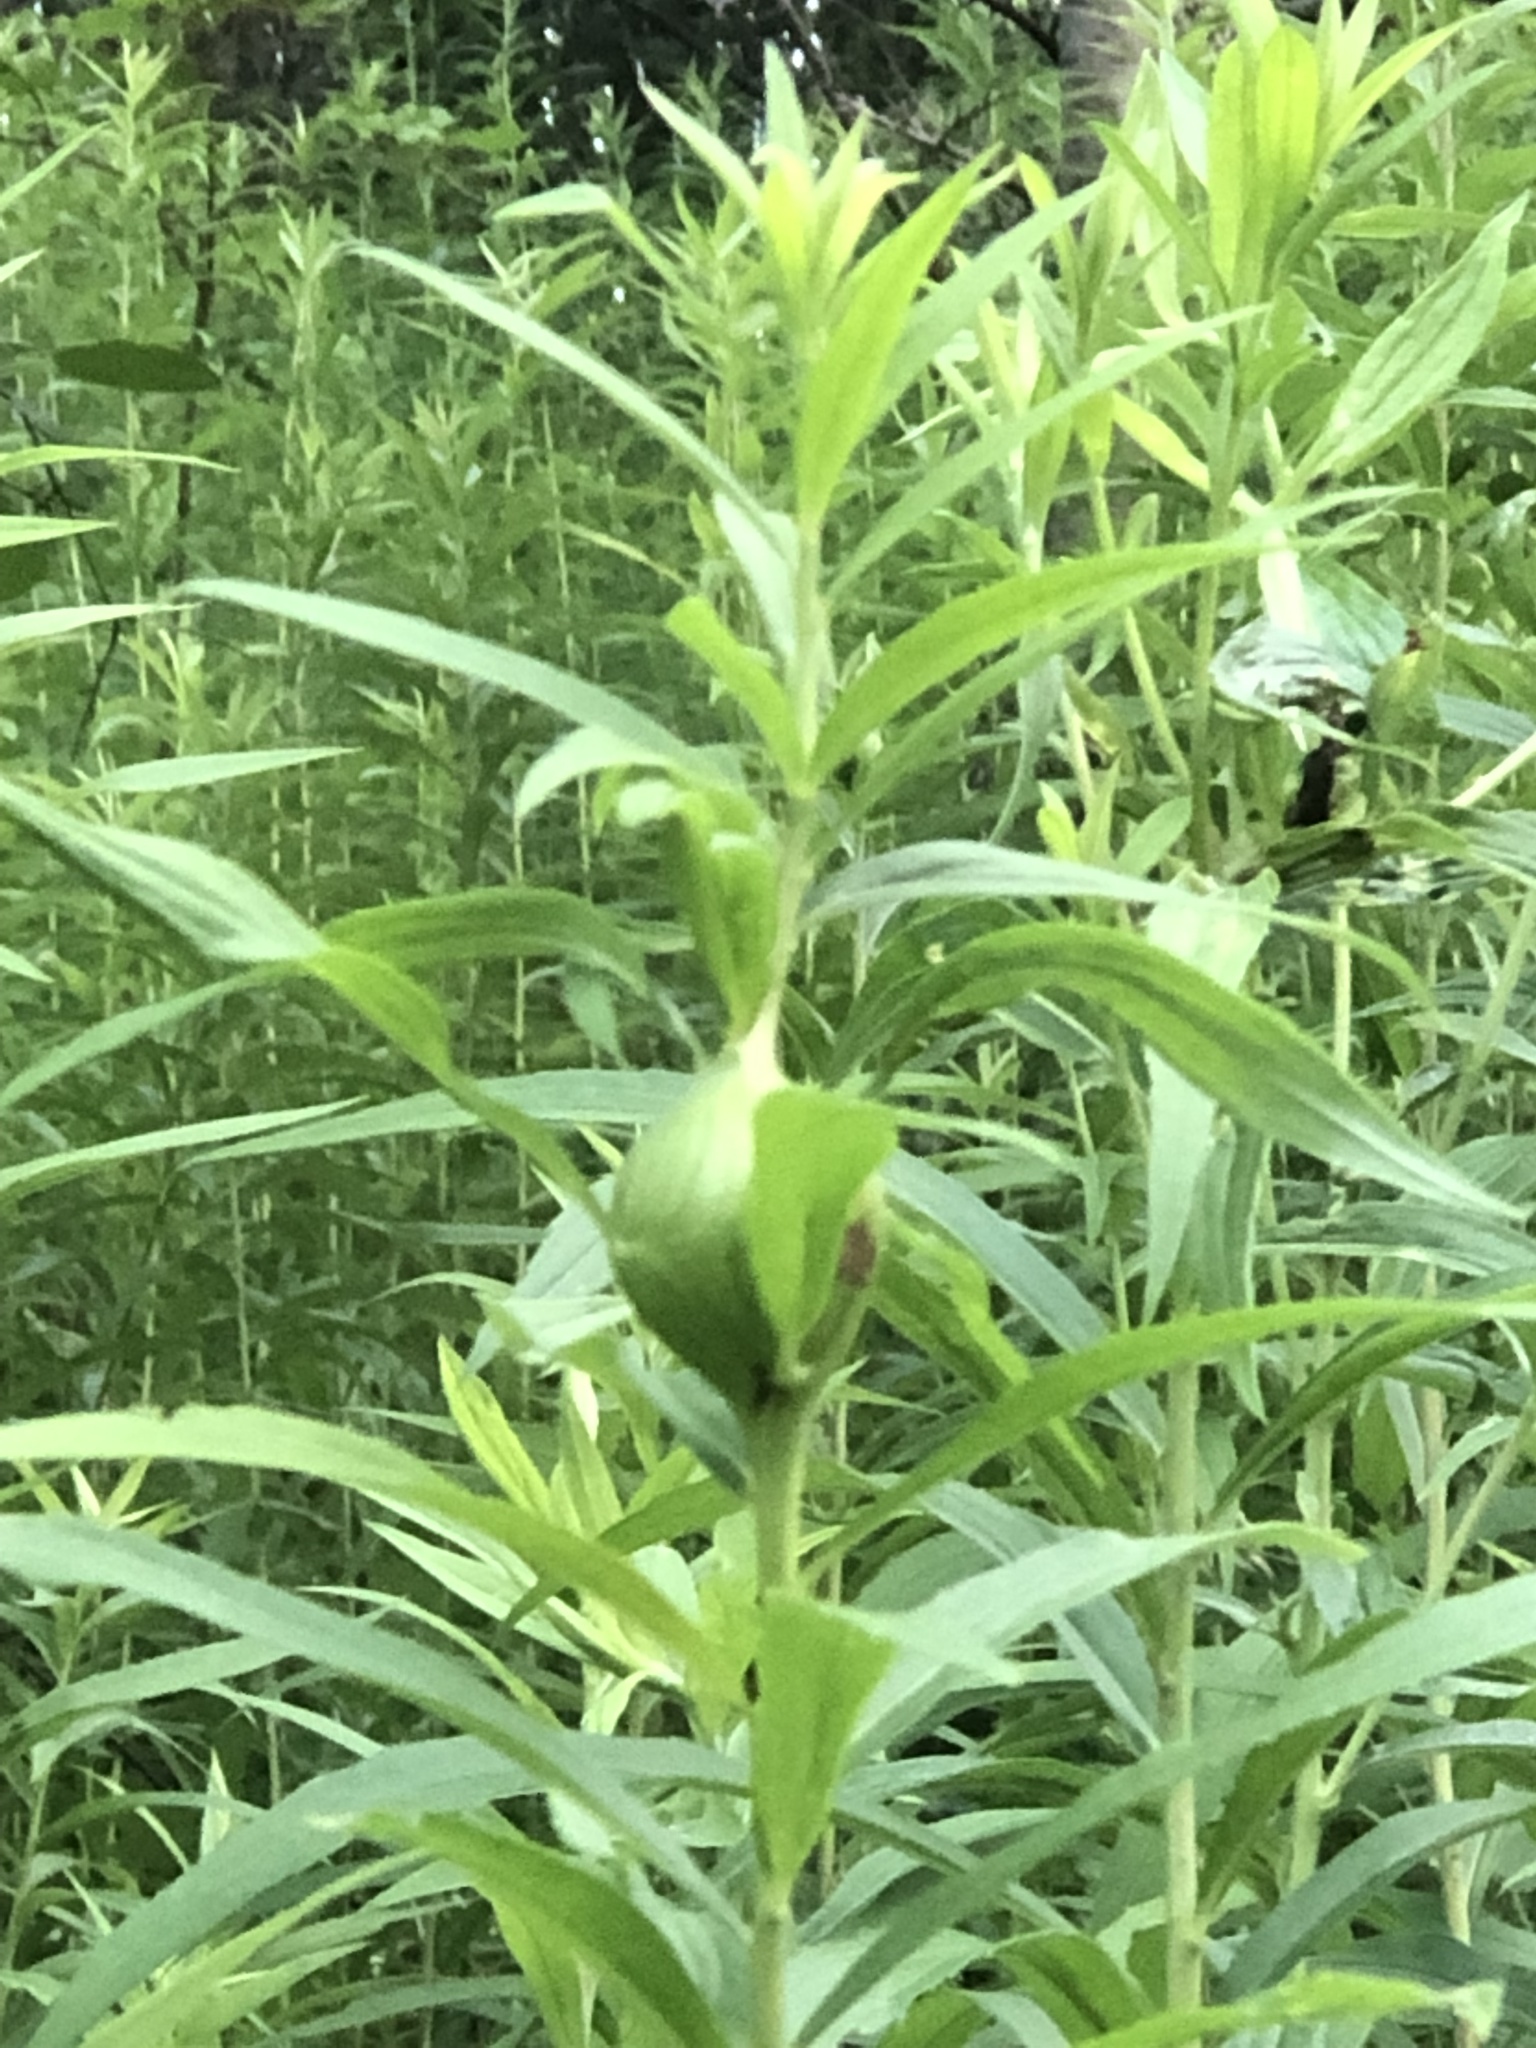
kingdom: Animalia
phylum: Arthropoda
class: Insecta
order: Diptera
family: Tephritidae
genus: Eurosta
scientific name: Eurosta solidaginis
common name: Goldenrod gall fly
